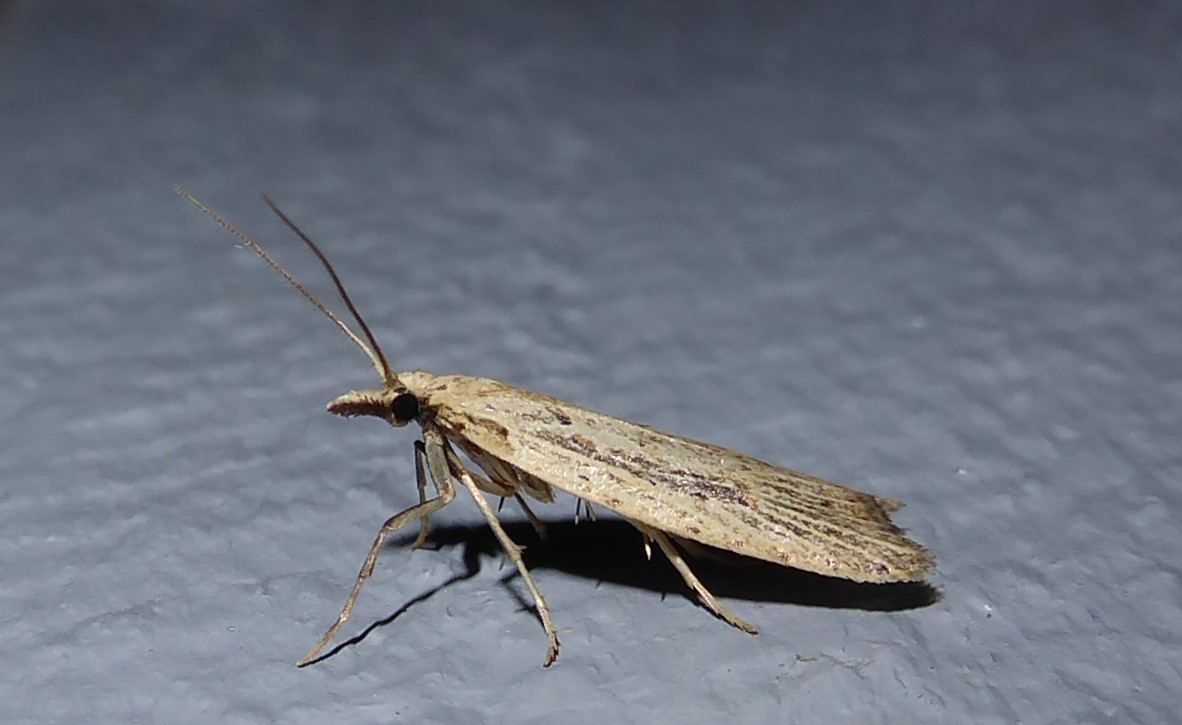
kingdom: Animalia
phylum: Arthropoda
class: Insecta
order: Lepidoptera
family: Carposinidae
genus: Carposina
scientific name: Carposina Heterocrossa exochana
